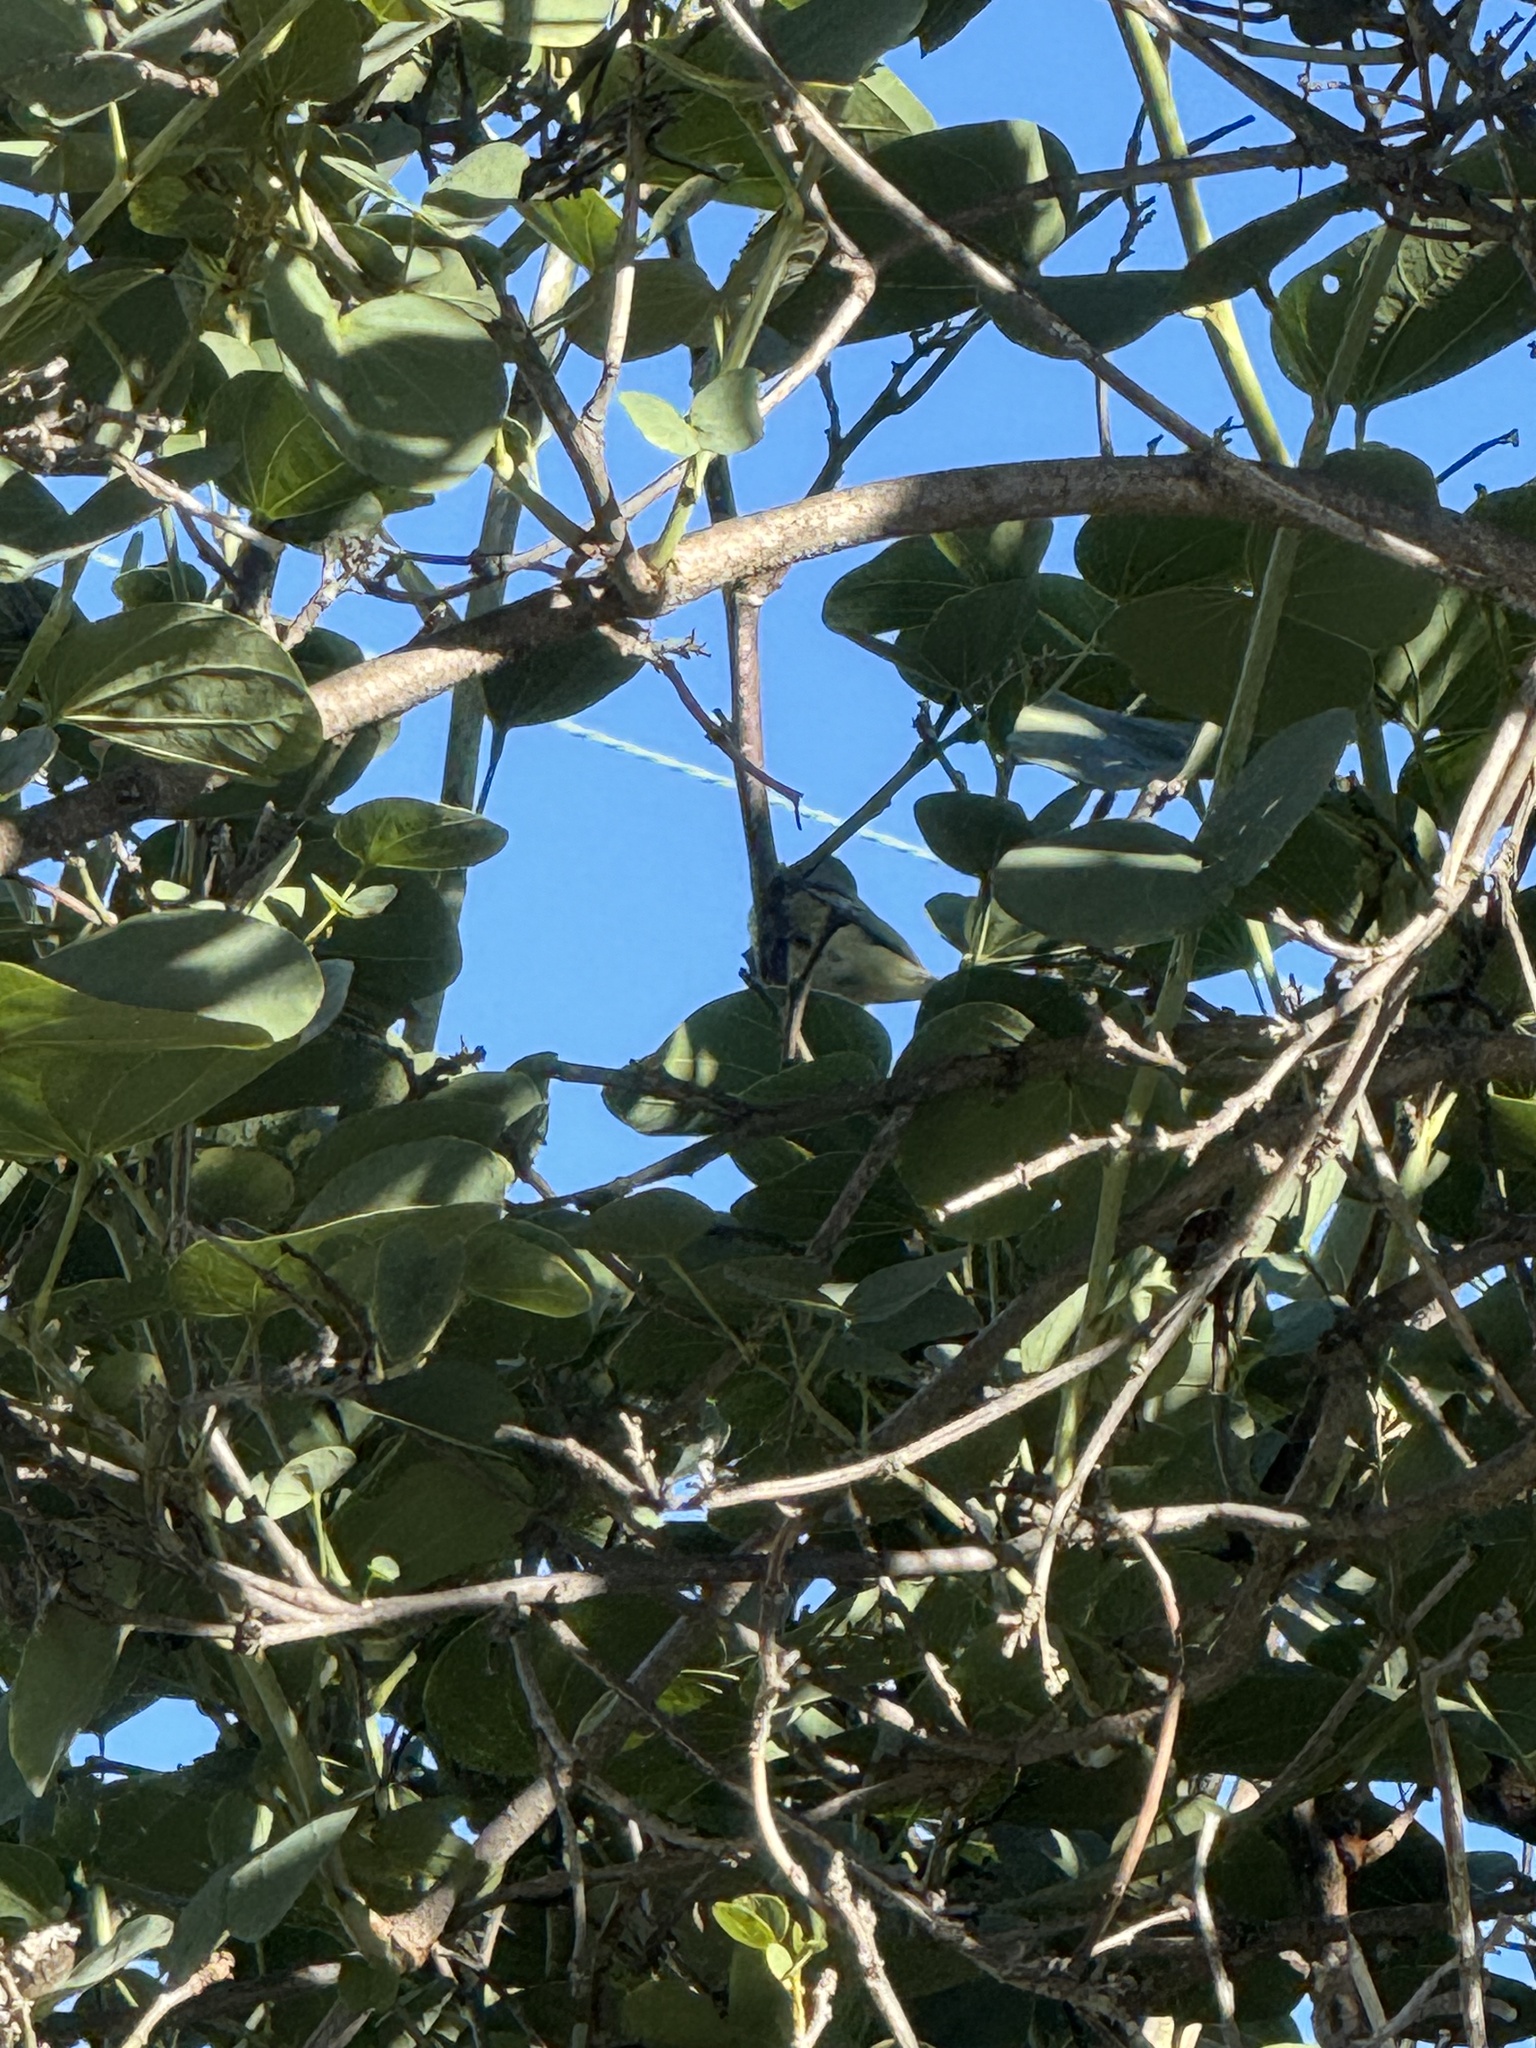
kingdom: Animalia
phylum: Chordata
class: Aves
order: Passeriformes
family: Fringillidae
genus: Spinus
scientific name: Spinus psaltria
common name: Lesser goldfinch
